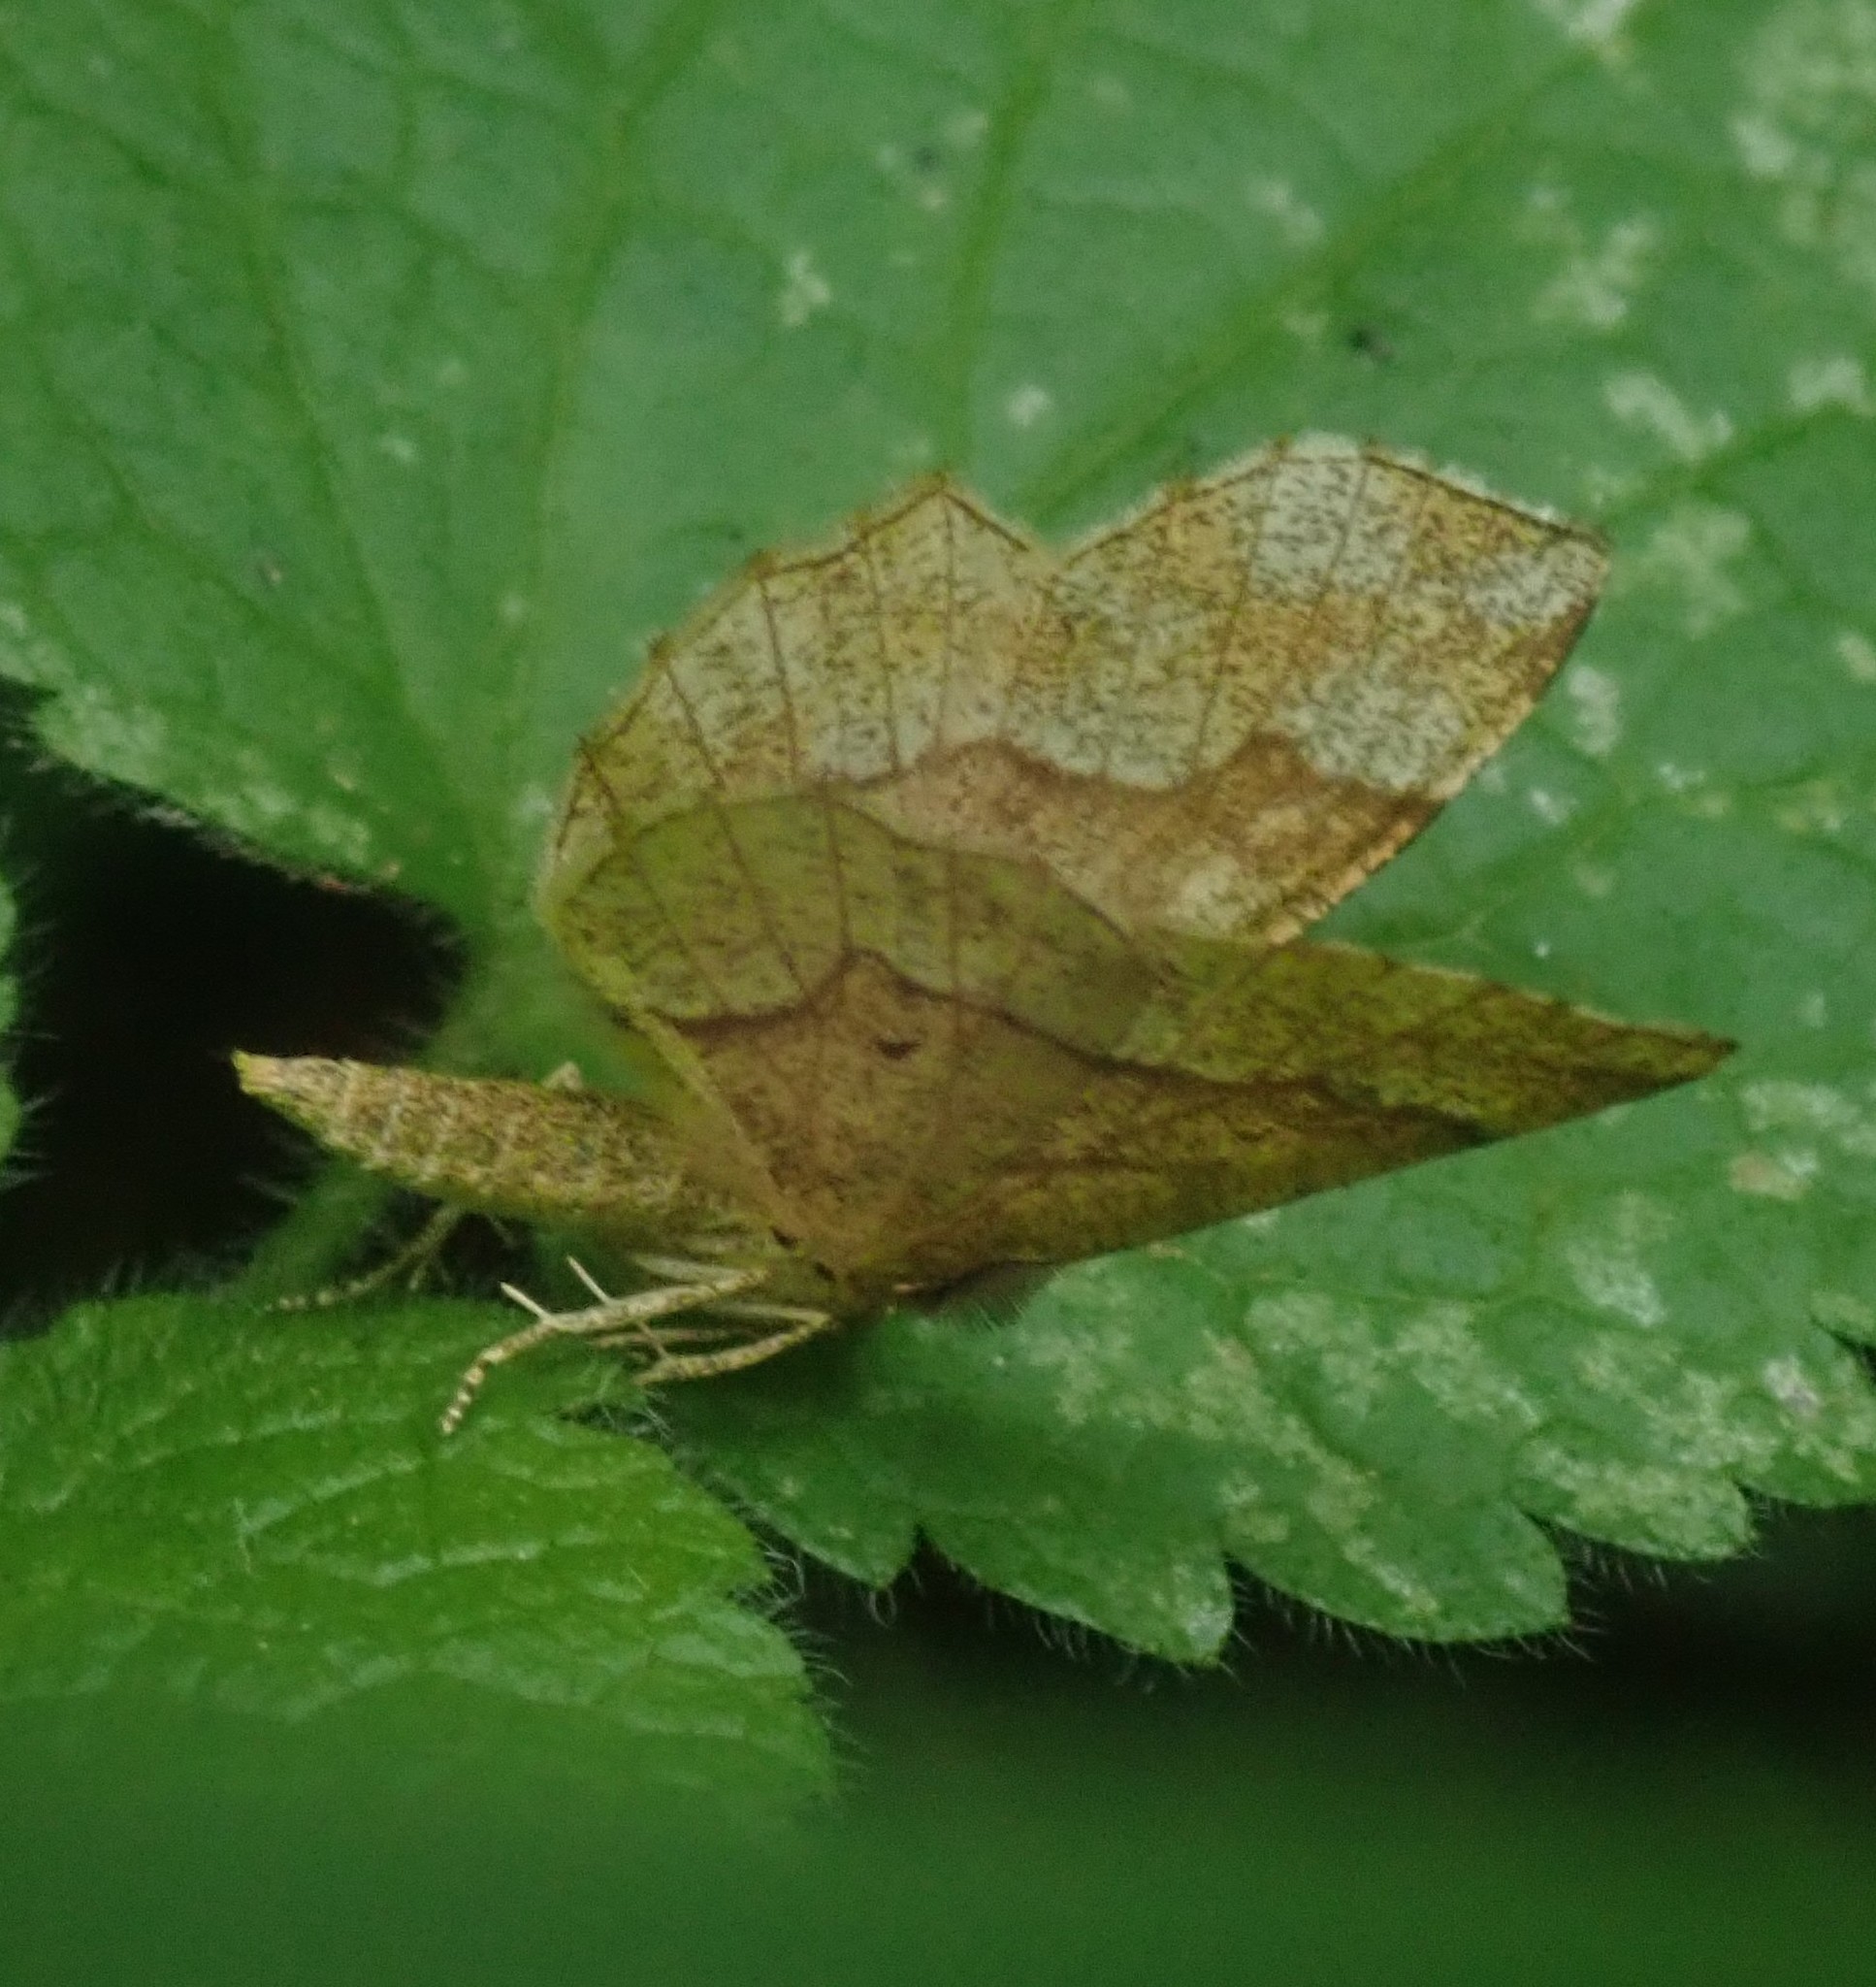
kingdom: Animalia
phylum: Arthropoda
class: Insecta
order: Lepidoptera
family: Geometridae
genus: Cepphis
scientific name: Cepphis advenaria
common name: Little thorn
